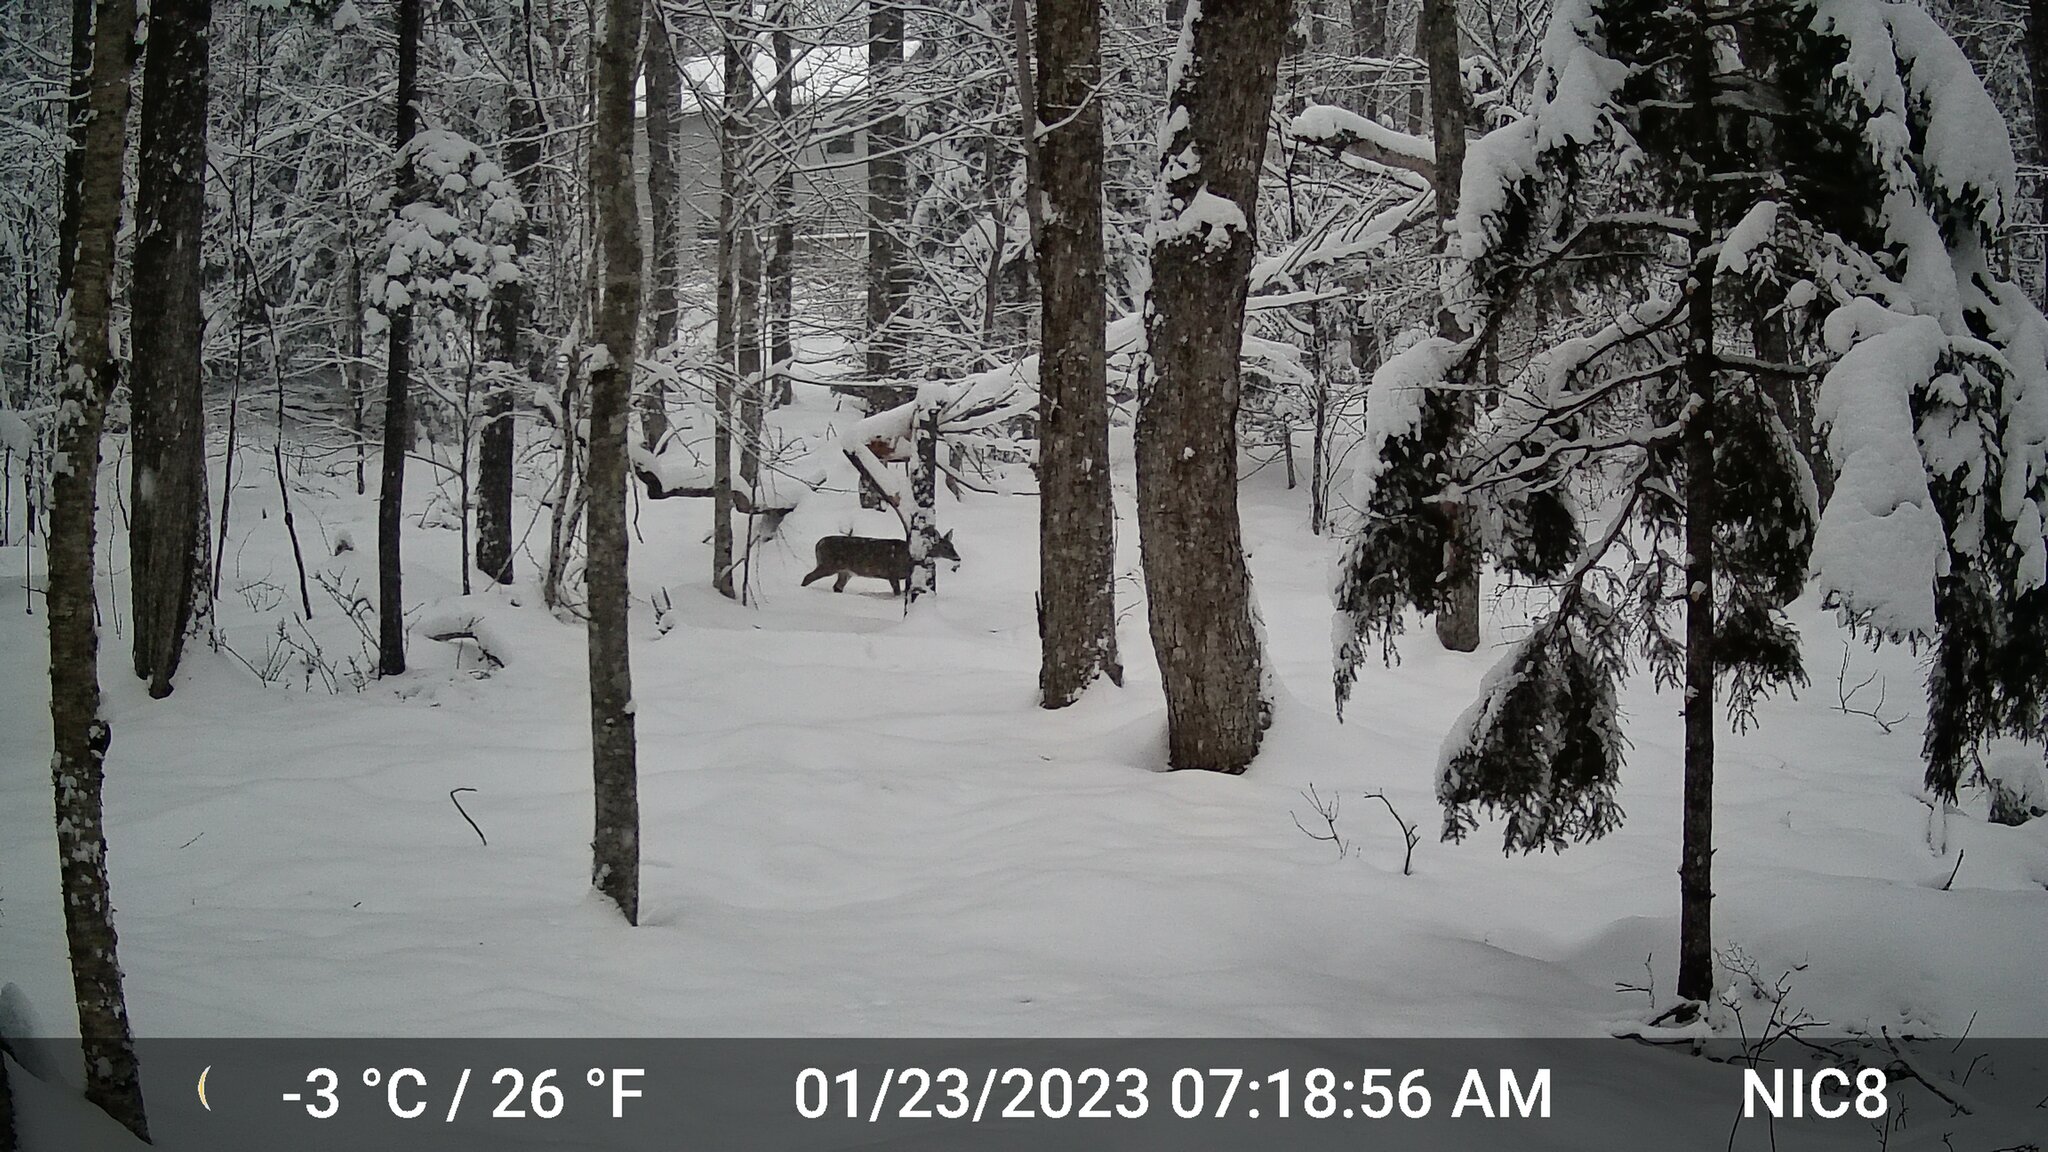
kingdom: Animalia
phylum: Chordata
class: Mammalia
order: Artiodactyla
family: Cervidae
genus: Odocoileus
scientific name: Odocoileus virginianus
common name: White-tailed deer
